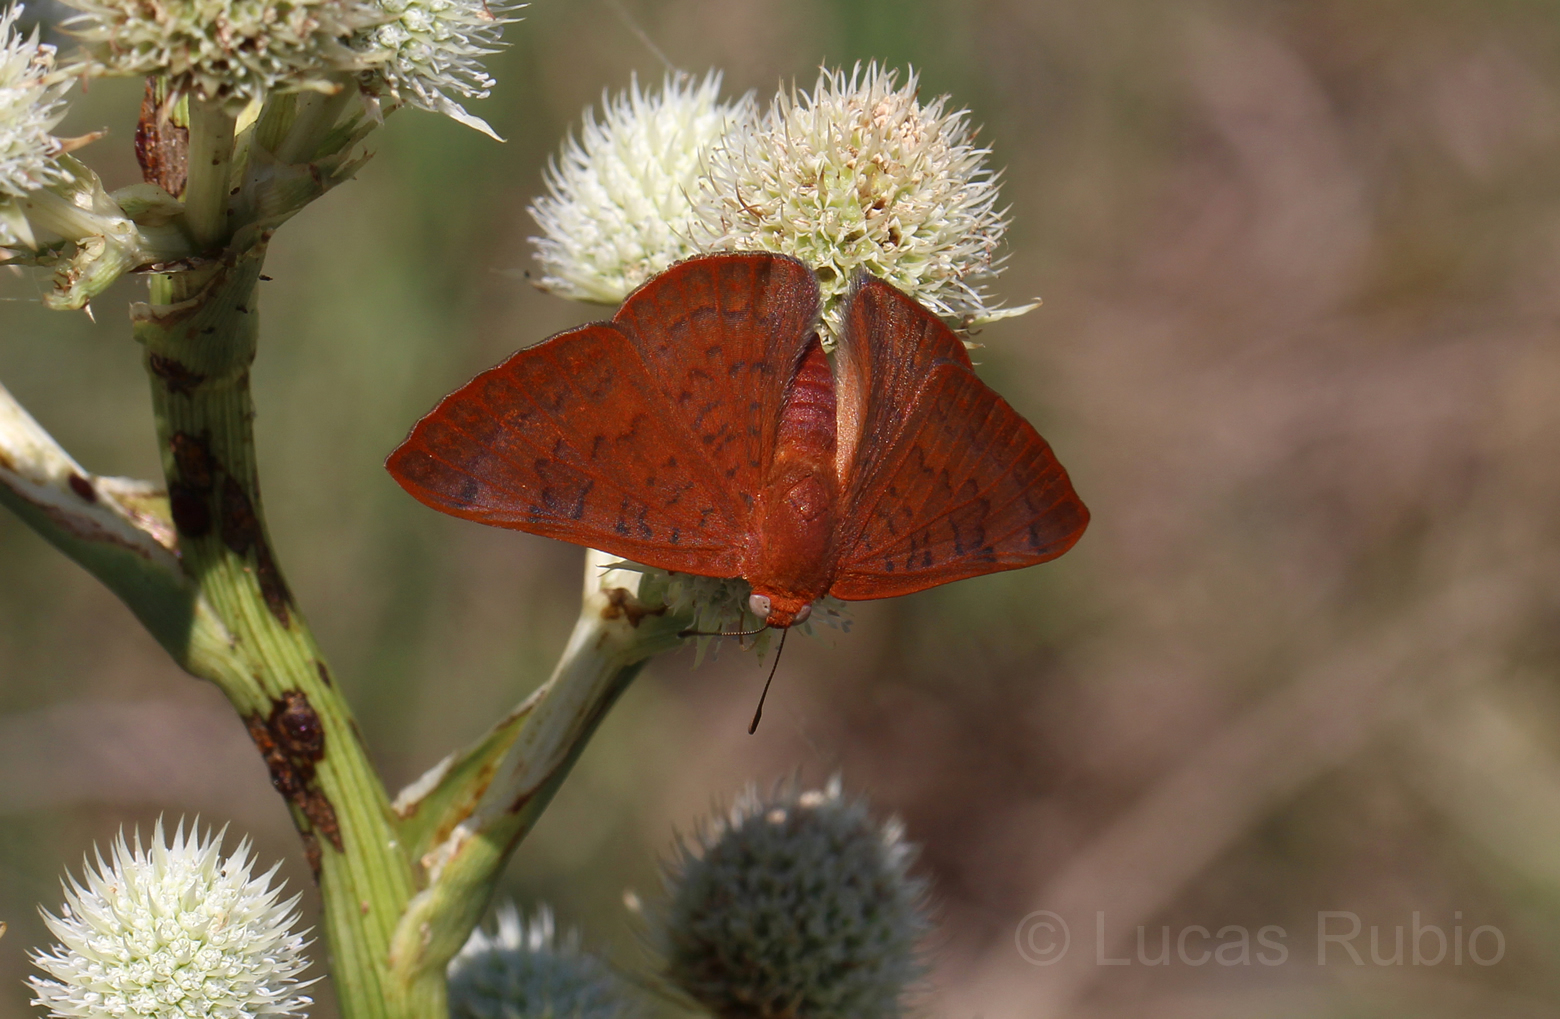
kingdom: Animalia
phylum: Arthropoda
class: Insecta
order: Lepidoptera
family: Lycaenidae
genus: Emesis
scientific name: Emesis russula
